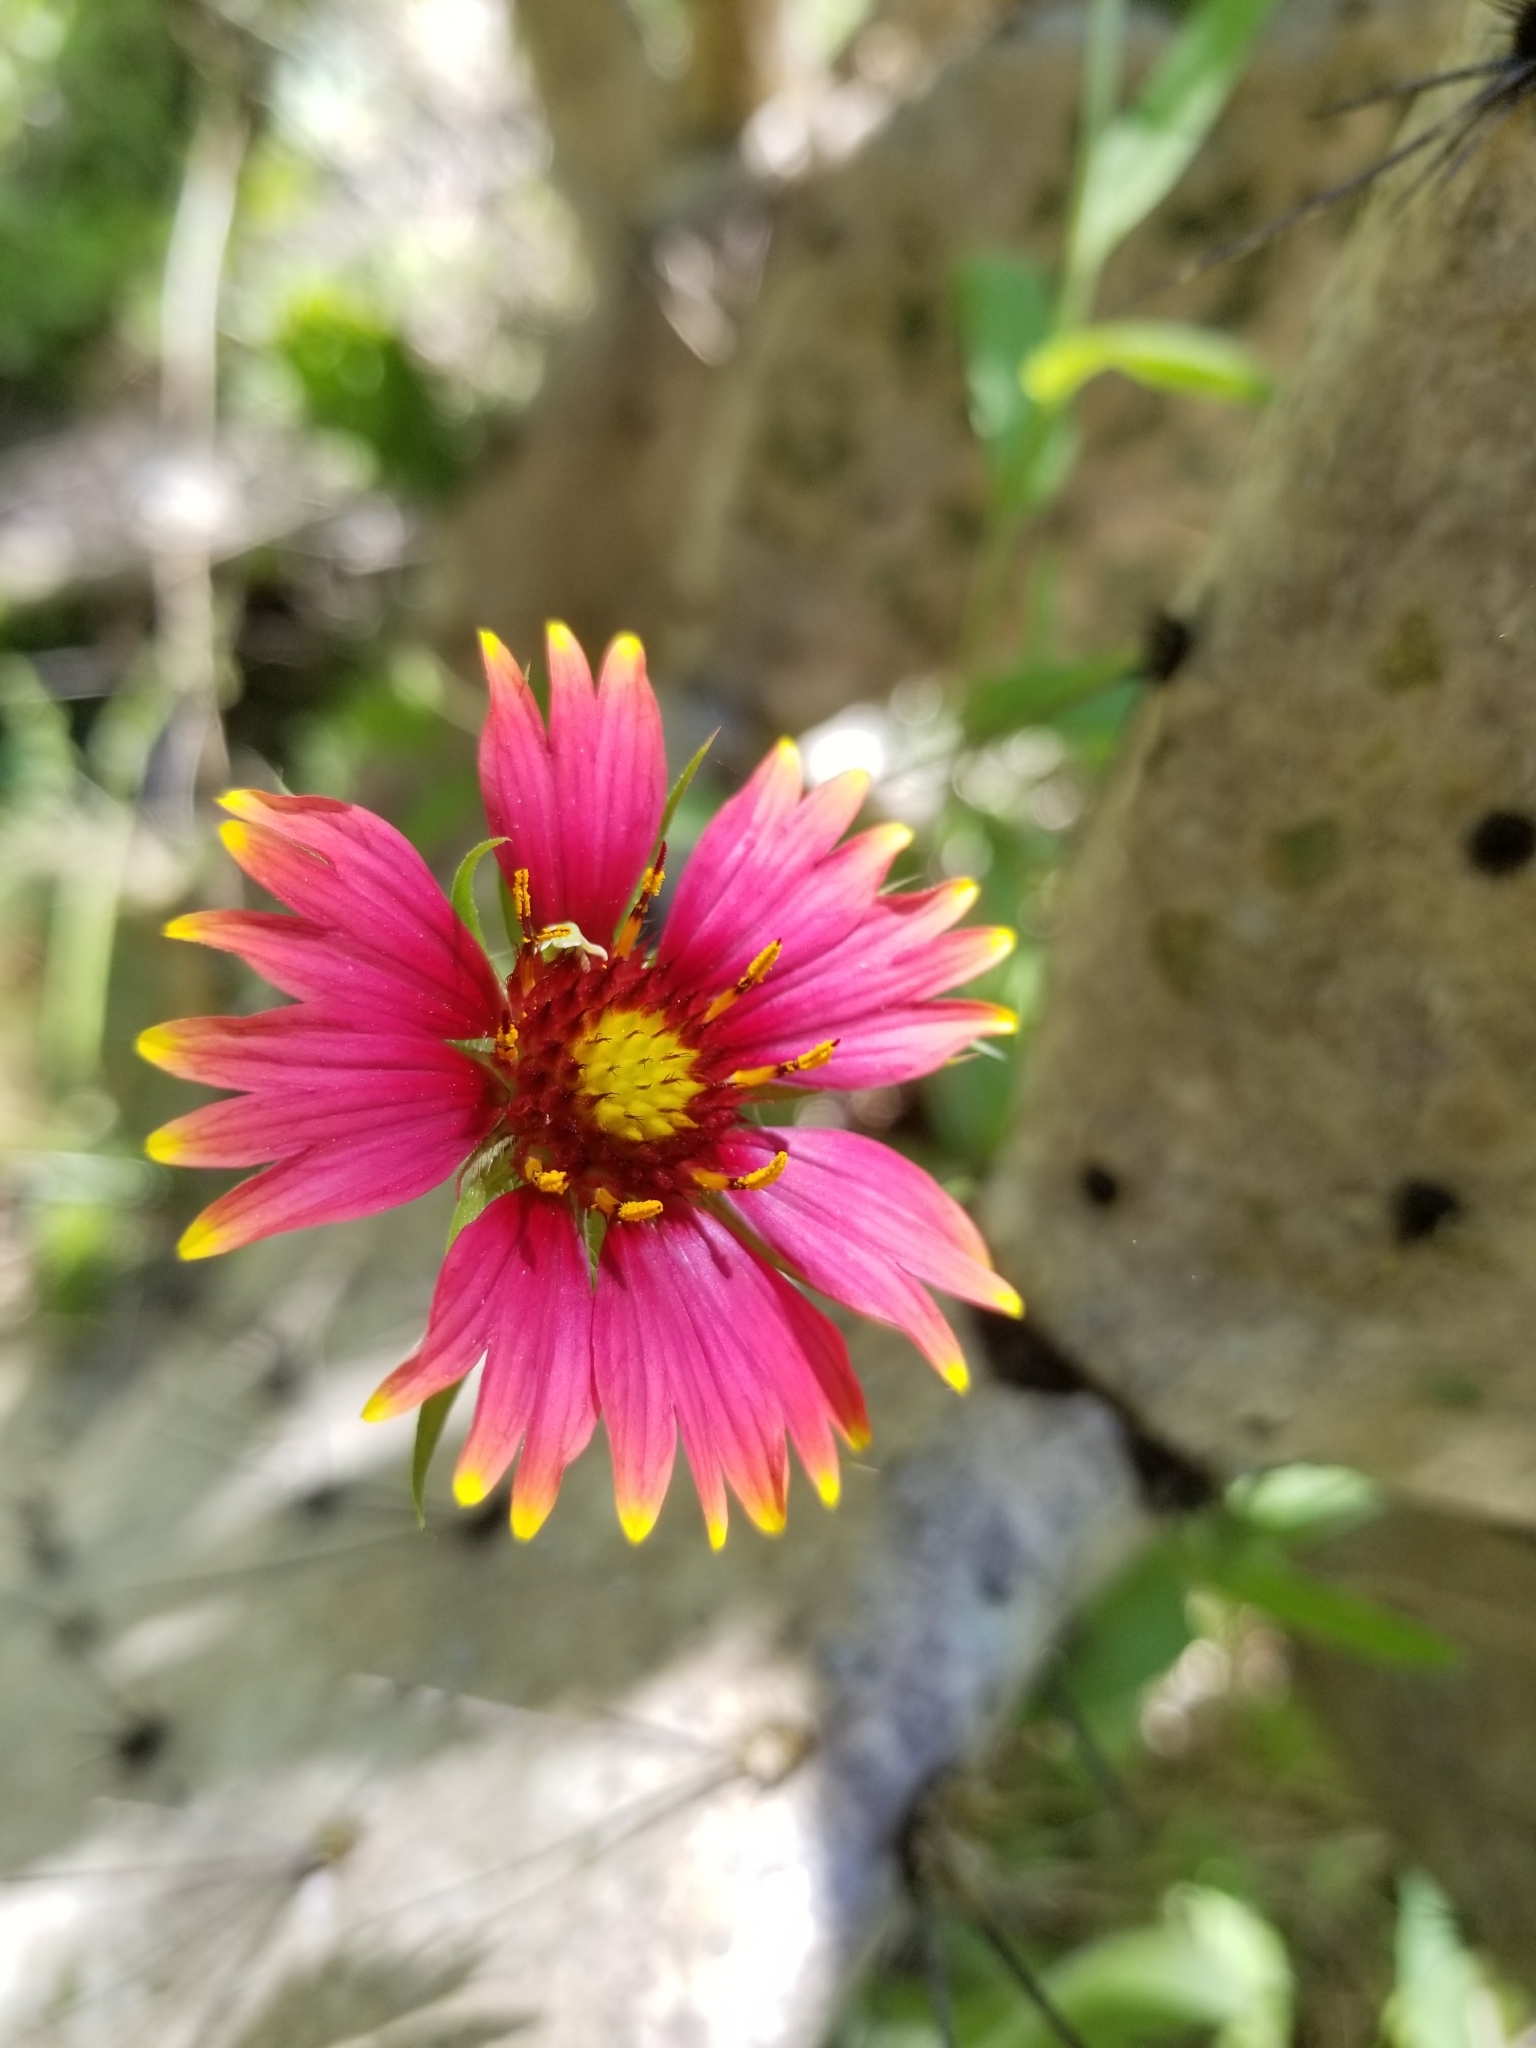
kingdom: Plantae
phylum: Tracheophyta
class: Magnoliopsida
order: Asterales
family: Asteraceae
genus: Gaillardia
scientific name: Gaillardia pulchella
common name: Firewheel
